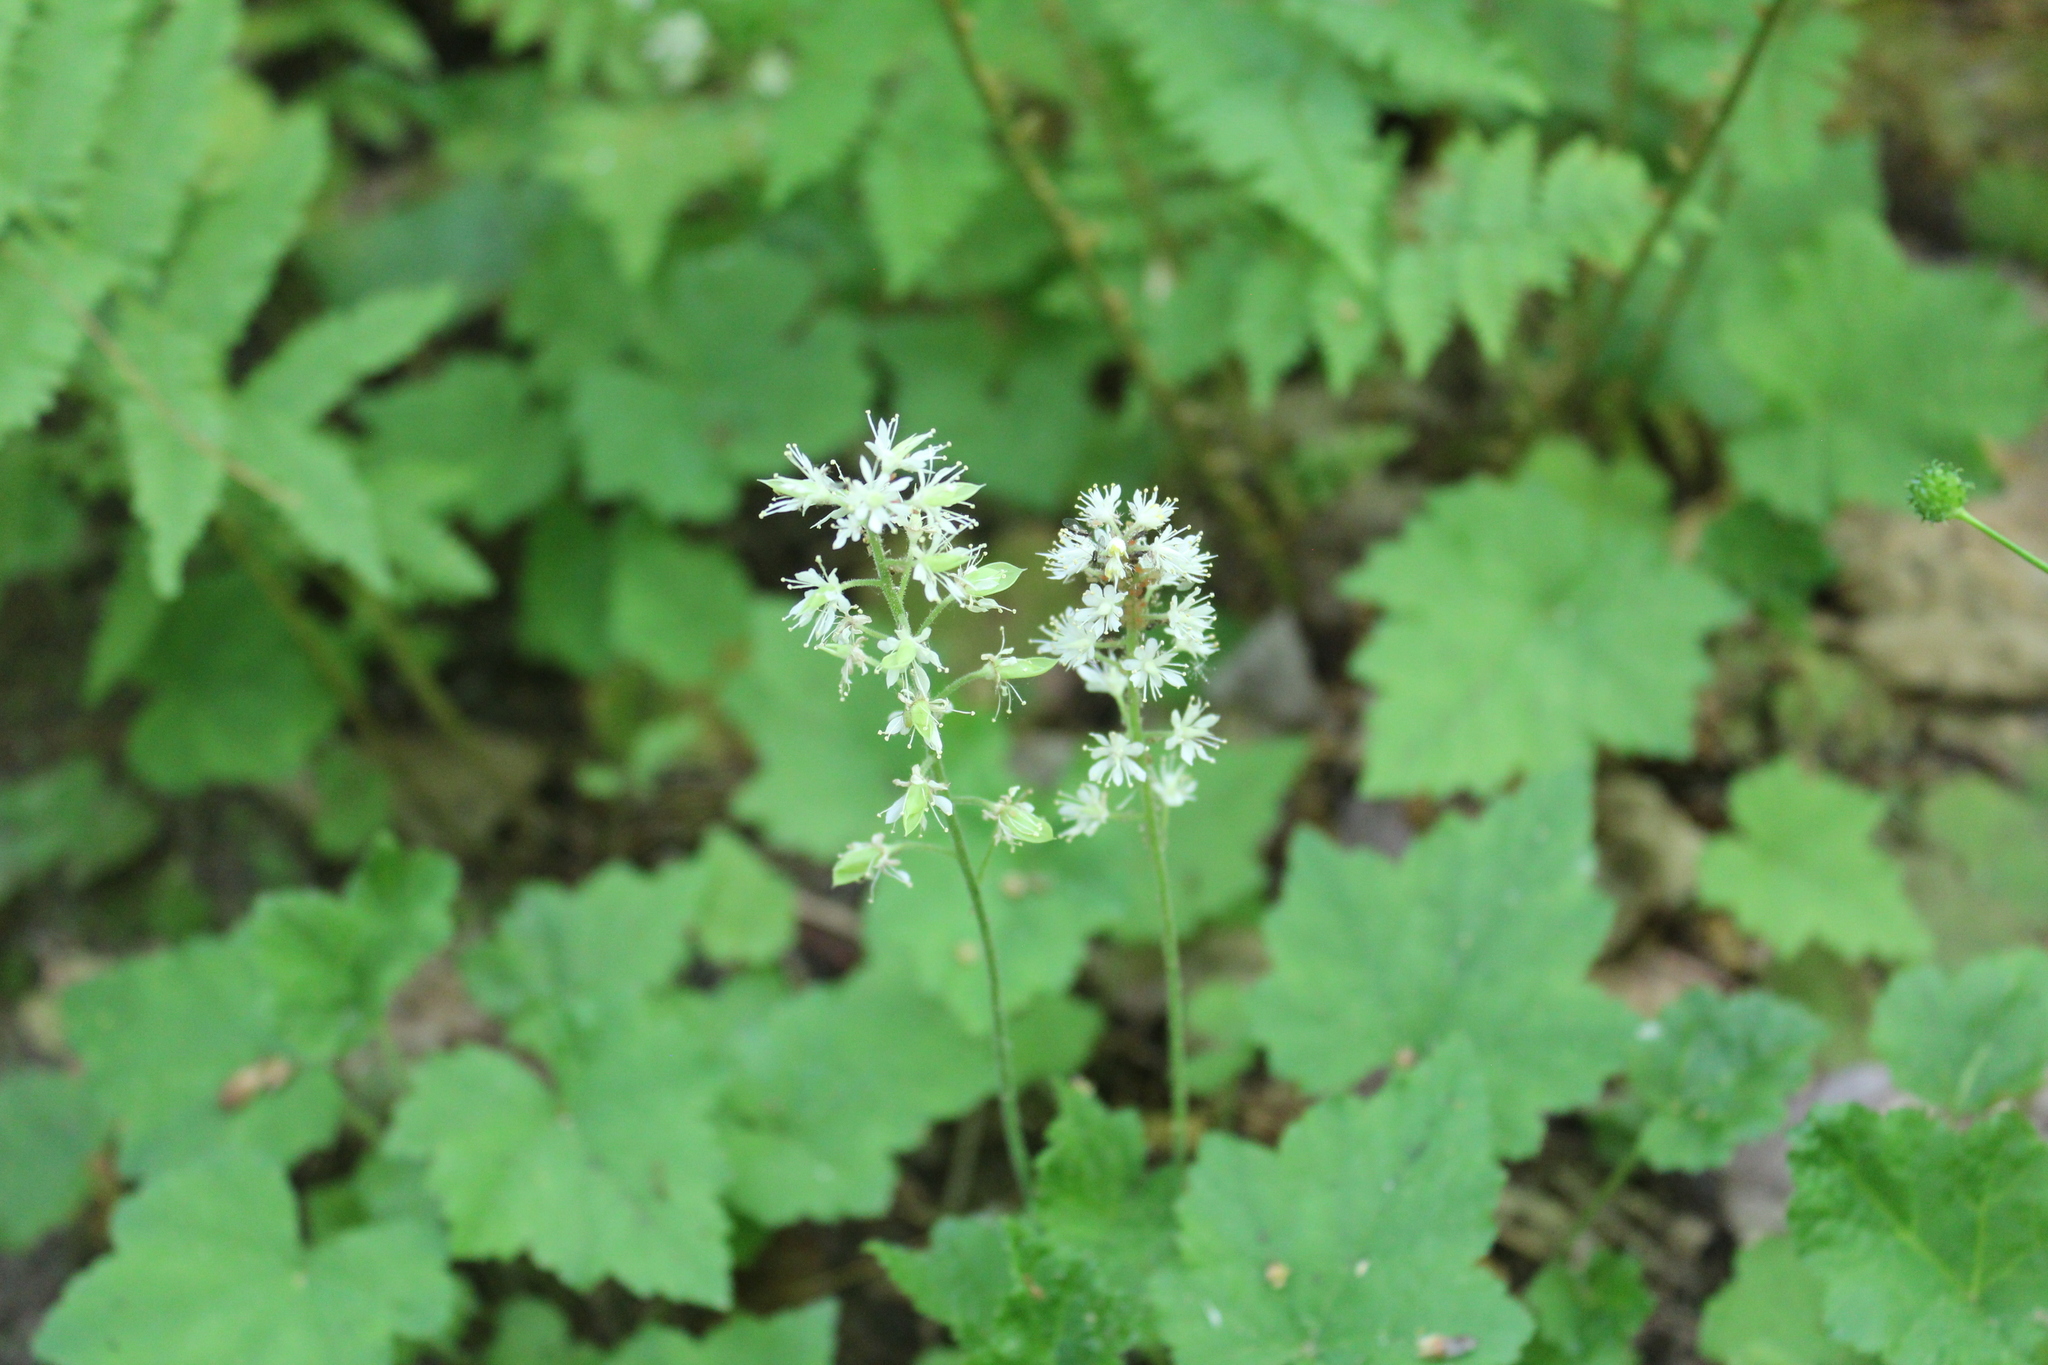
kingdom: Plantae
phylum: Tracheophyta
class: Magnoliopsida
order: Saxifragales
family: Saxifragaceae
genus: Tiarella
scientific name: Tiarella stolonifera
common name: Stoloniferous foamflower
